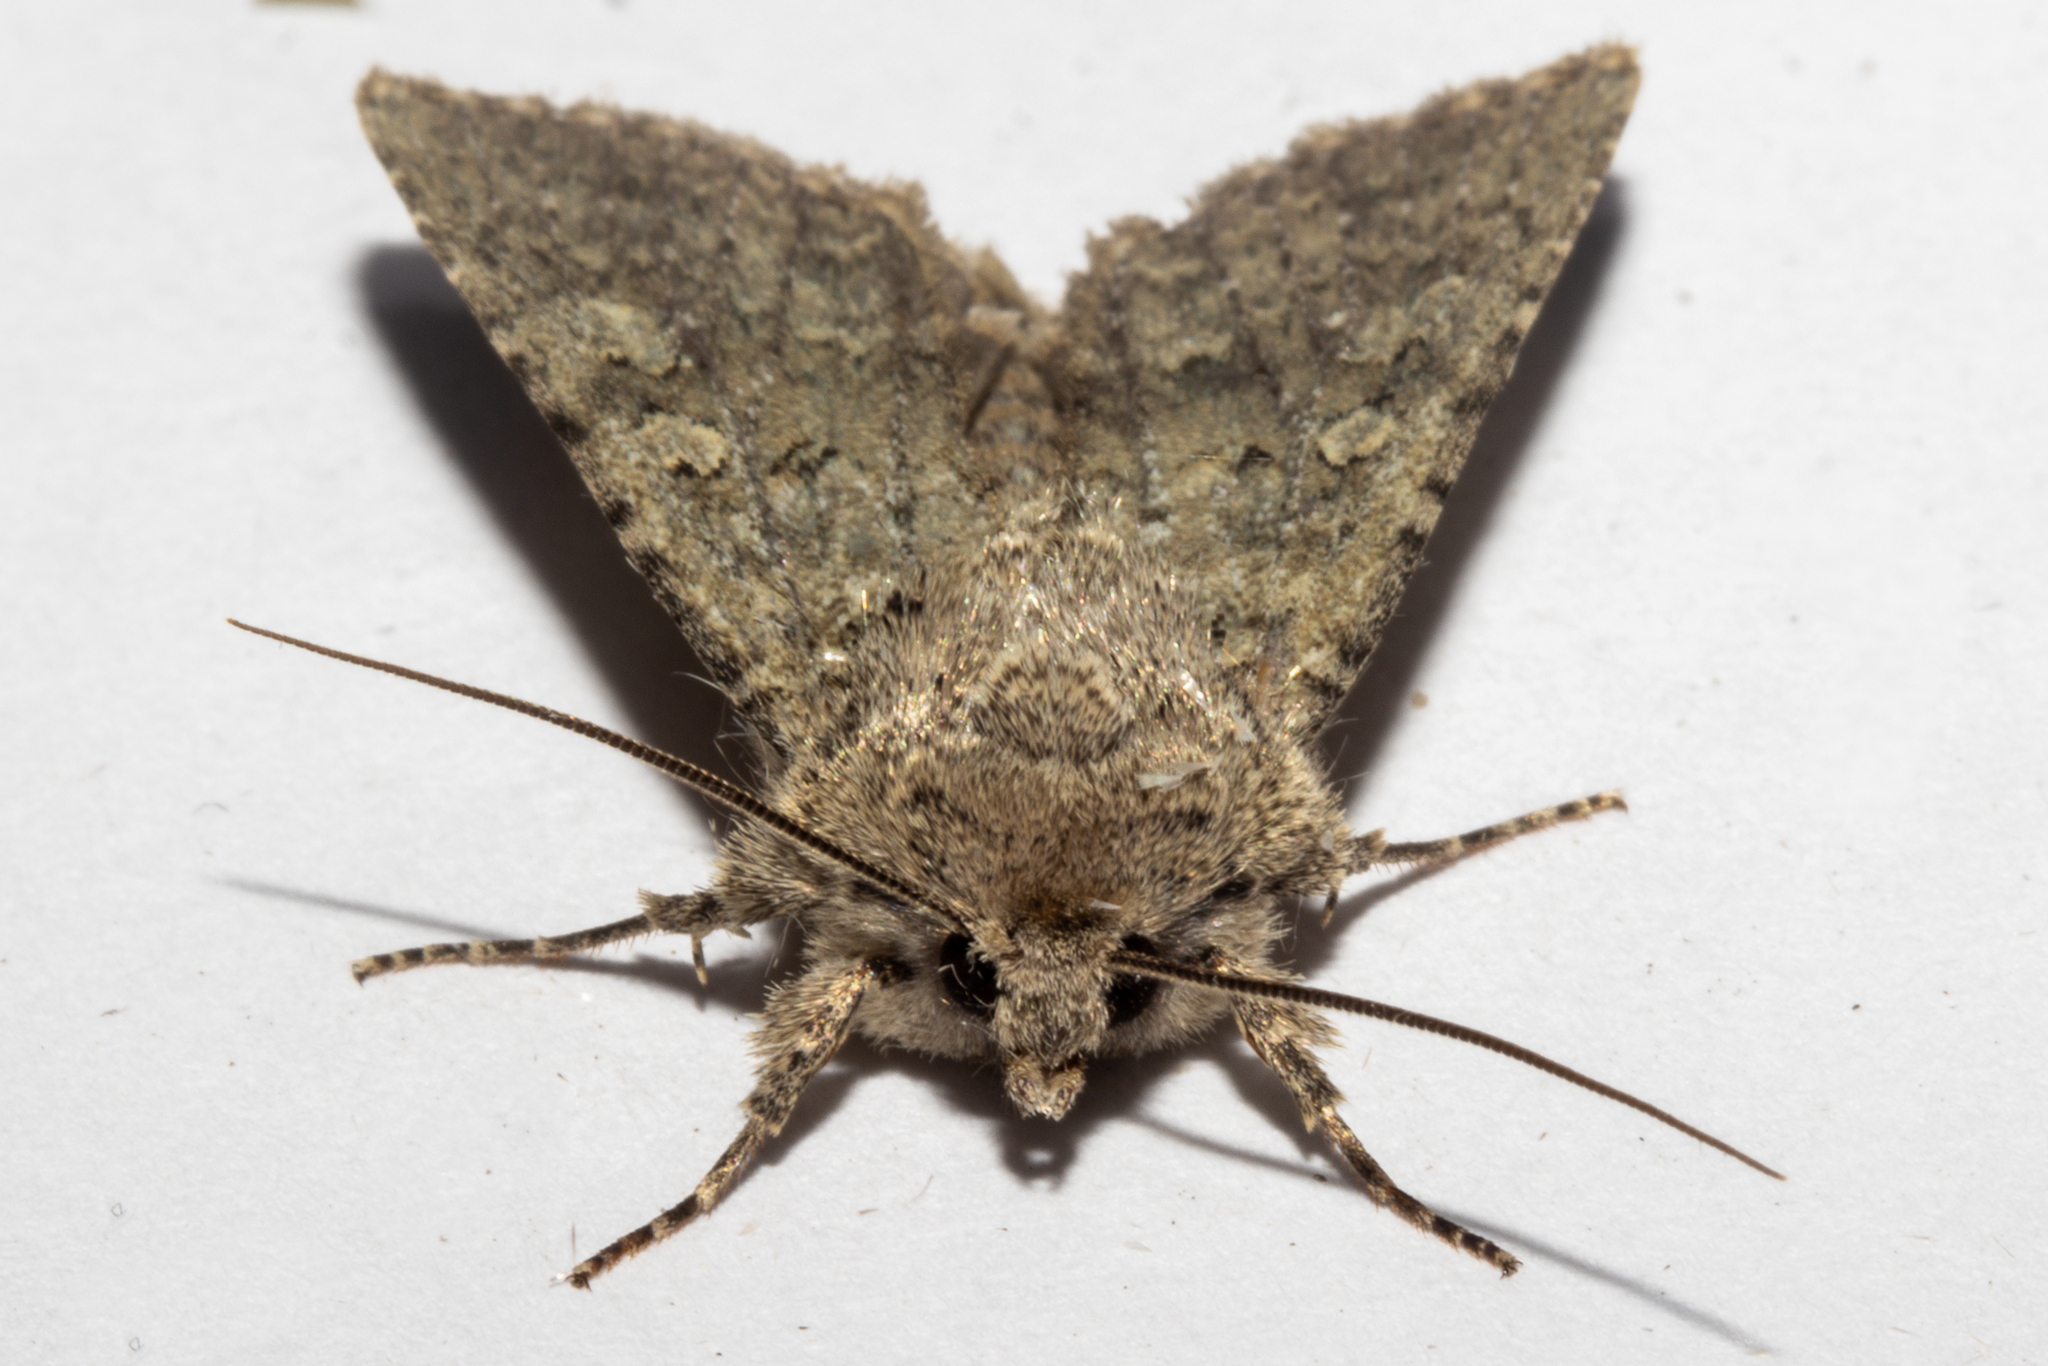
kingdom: Animalia
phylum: Arthropoda
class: Insecta
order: Lepidoptera
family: Noctuidae
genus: Physetica
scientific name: Physetica
